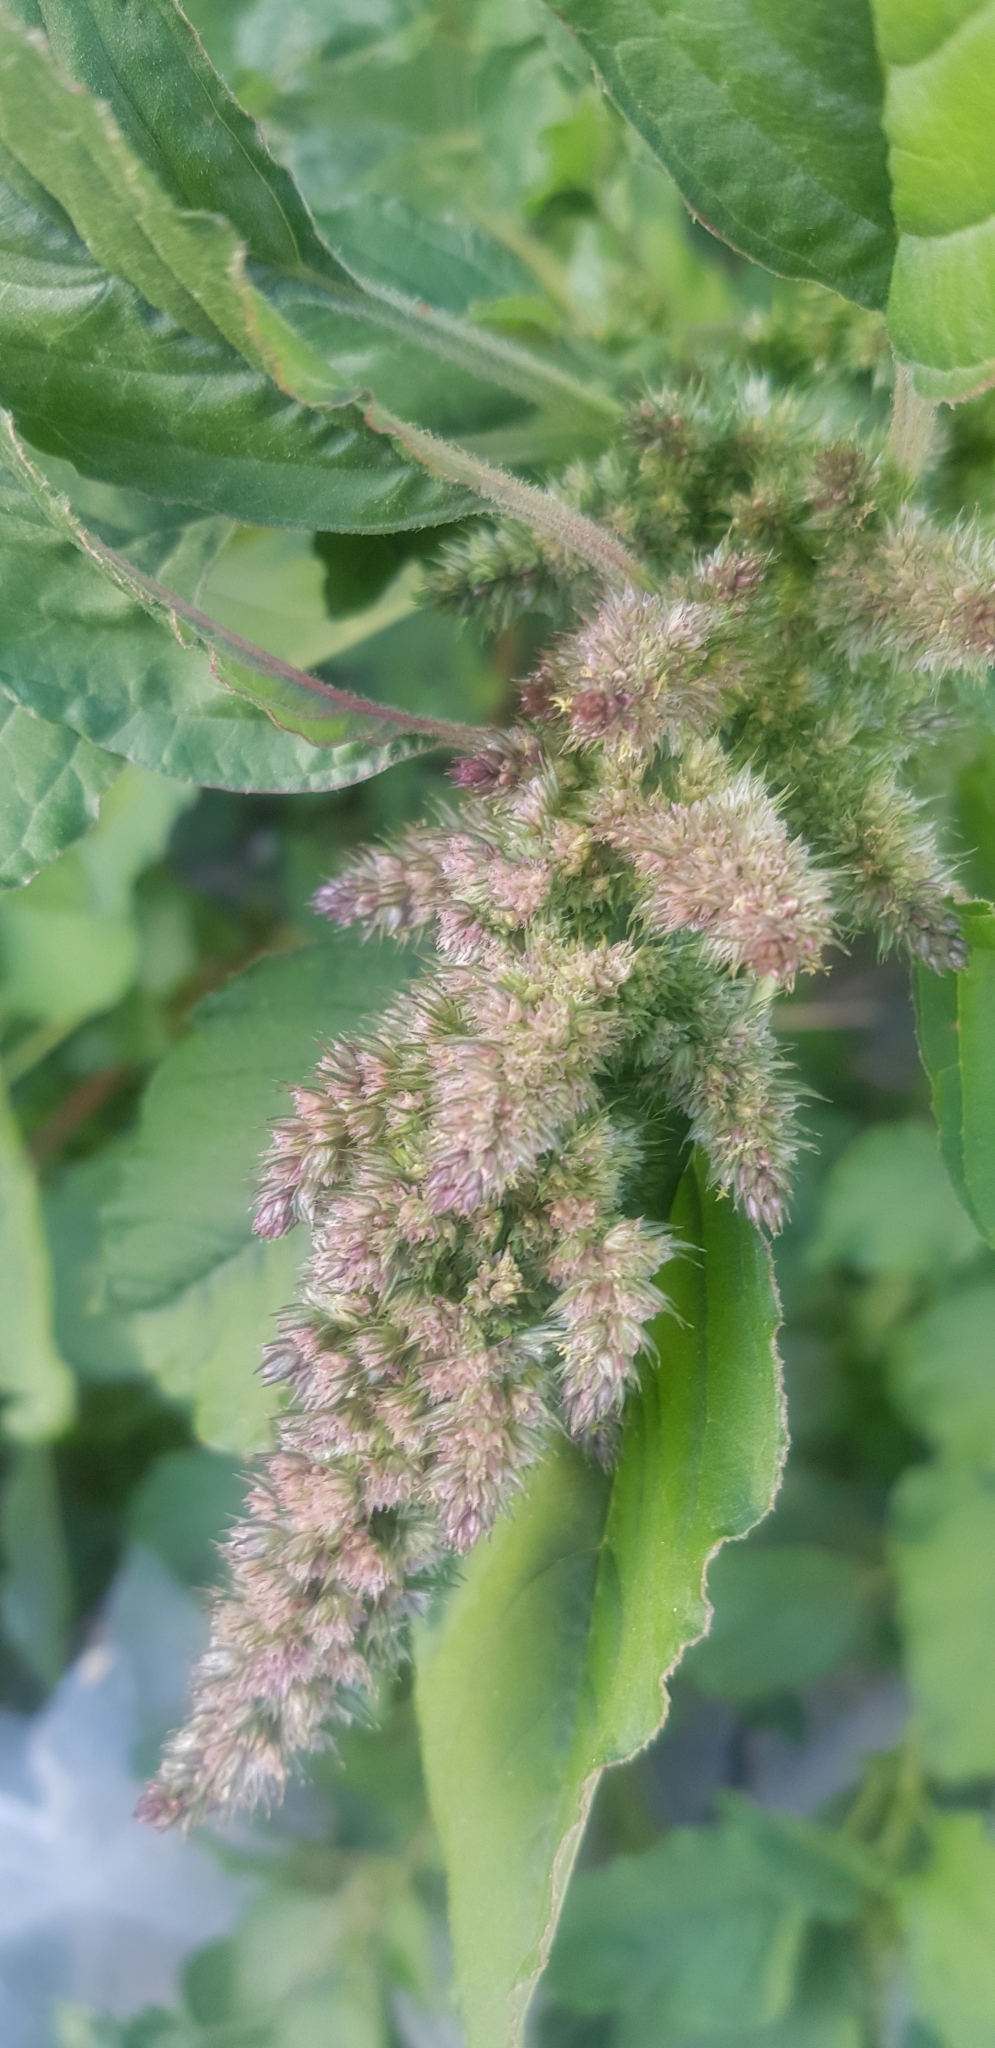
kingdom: Plantae
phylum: Tracheophyta
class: Magnoliopsida
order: Caryophyllales
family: Amaranthaceae
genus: Amaranthus
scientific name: Amaranthus retroflexus
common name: Redroot amaranth
